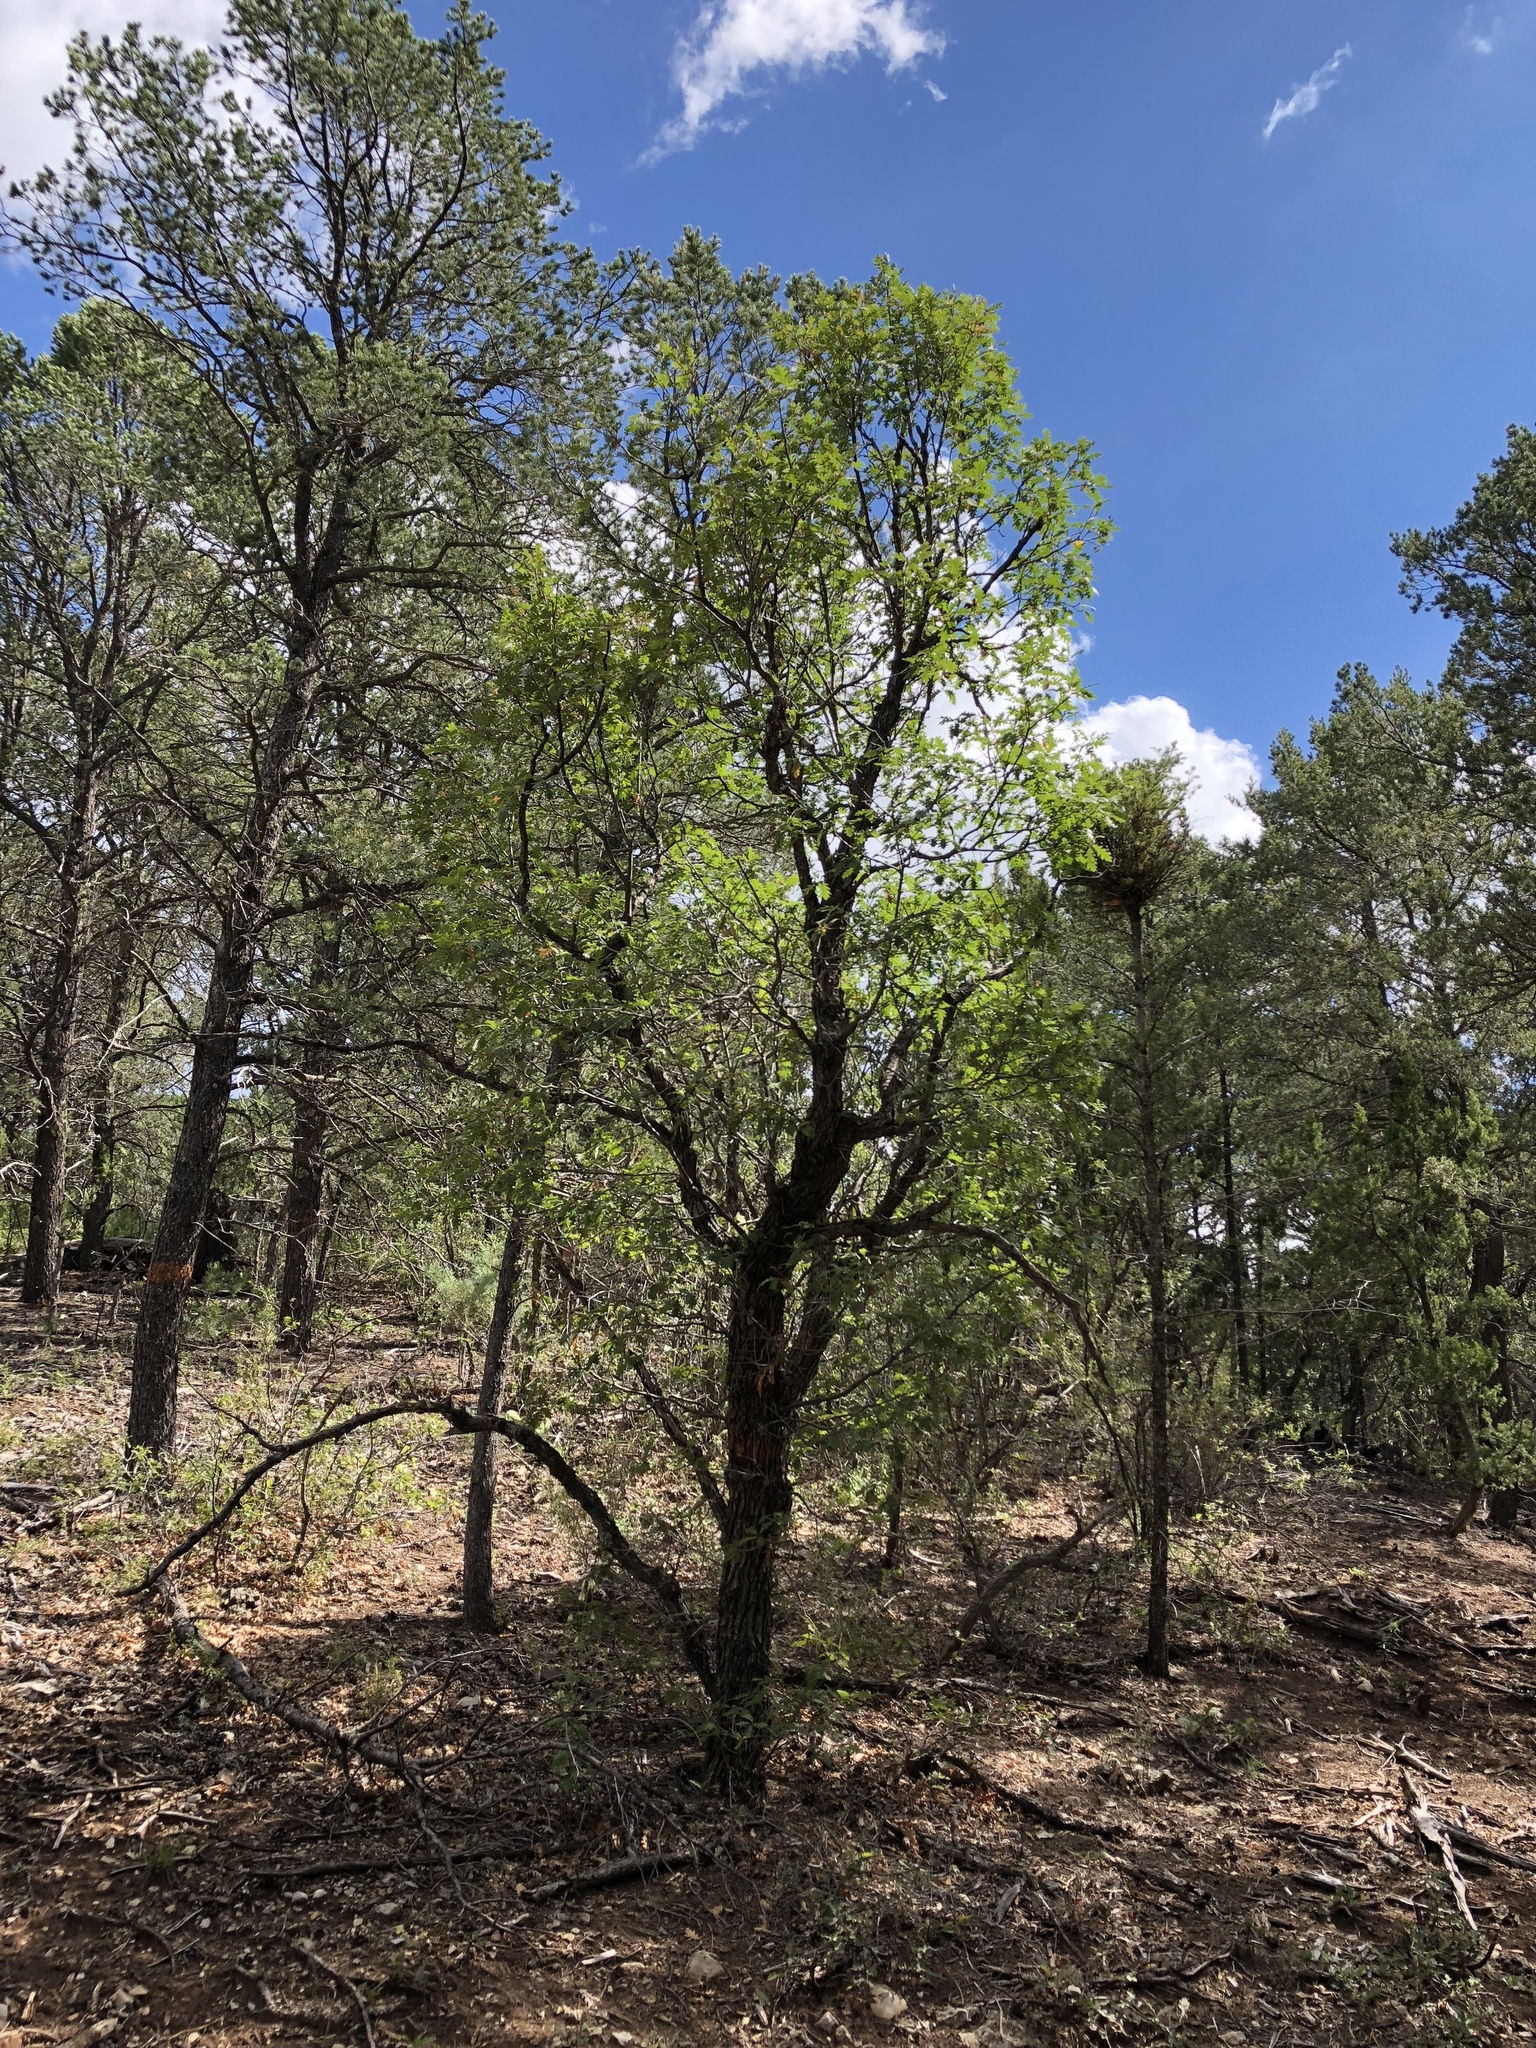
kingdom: Plantae
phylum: Tracheophyta
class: Magnoliopsida
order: Fagales
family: Fagaceae
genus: Quercus
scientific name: Quercus gambelii
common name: Gambel oak
